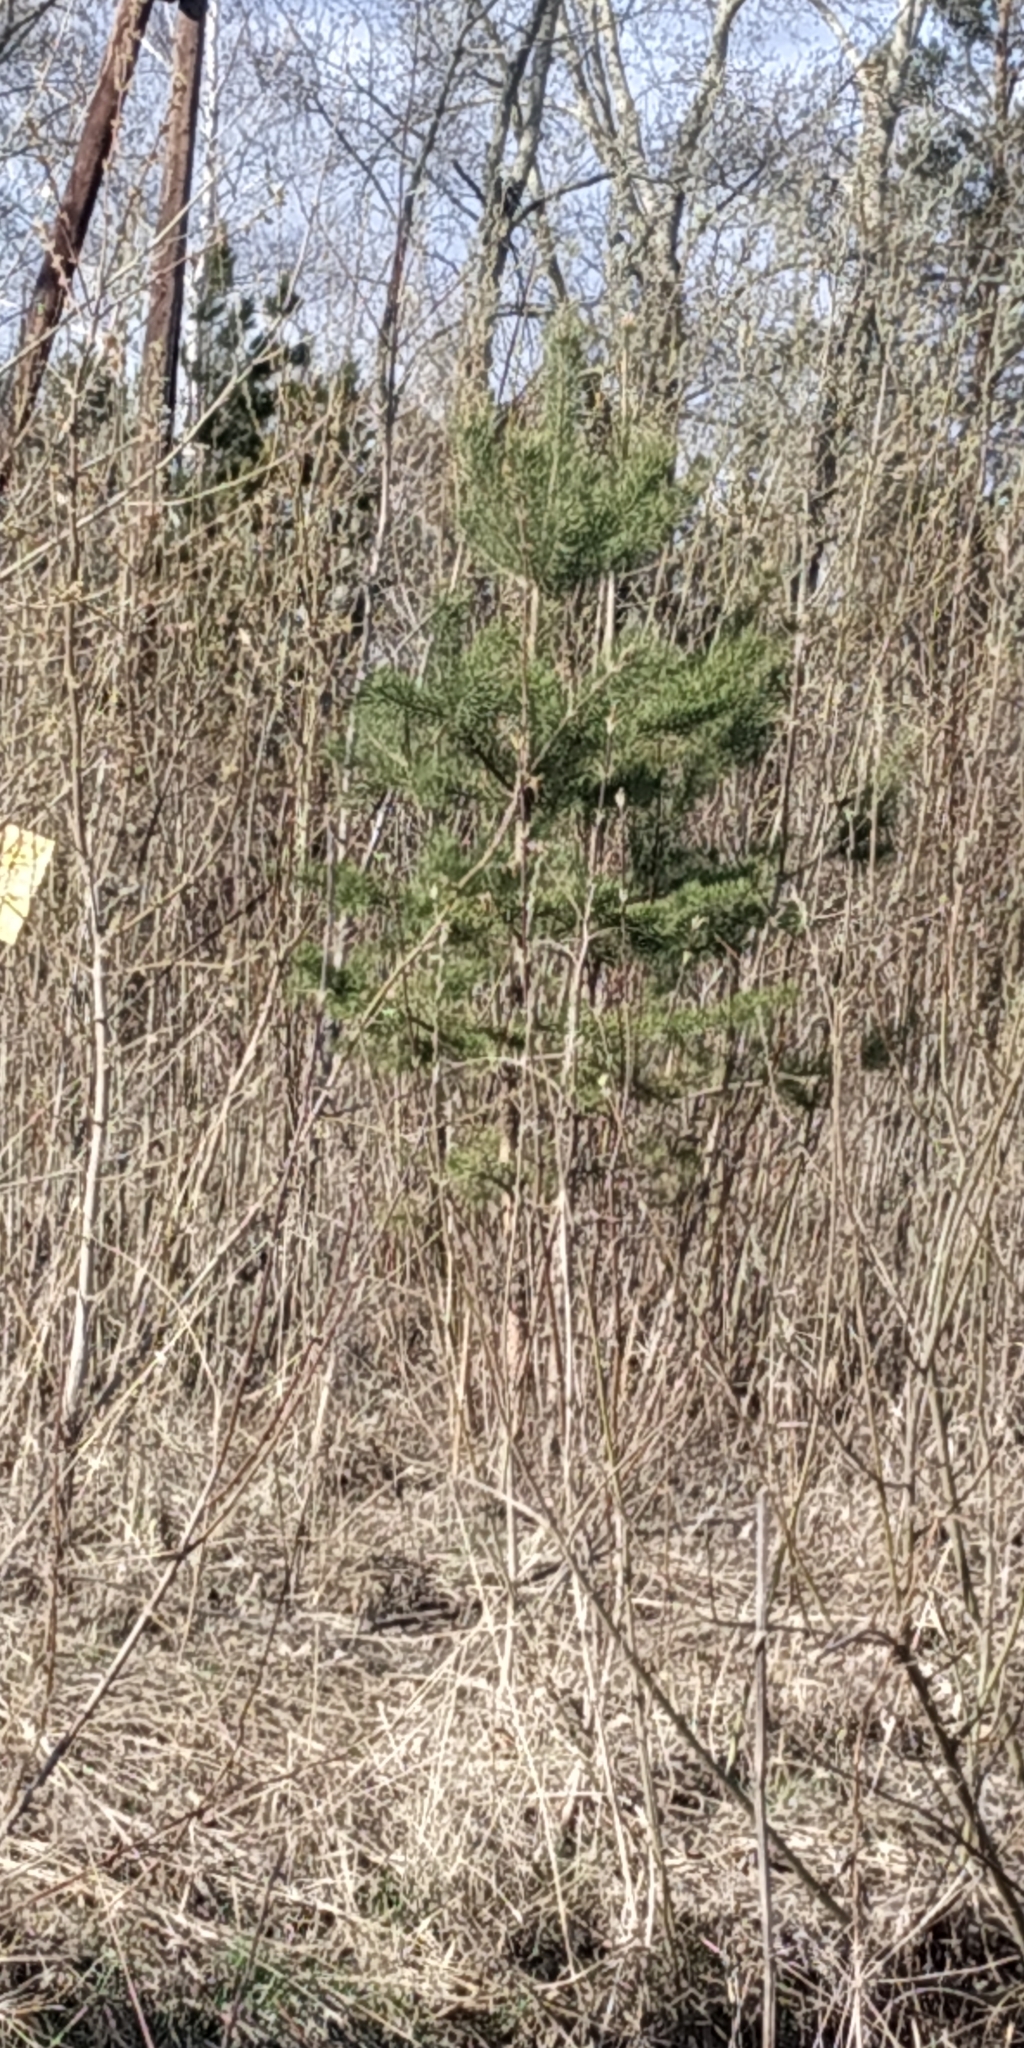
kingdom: Plantae
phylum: Tracheophyta
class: Pinopsida
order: Pinales
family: Pinaceae
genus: Pinus
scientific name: Pinus sylvestris
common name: Scots pine
